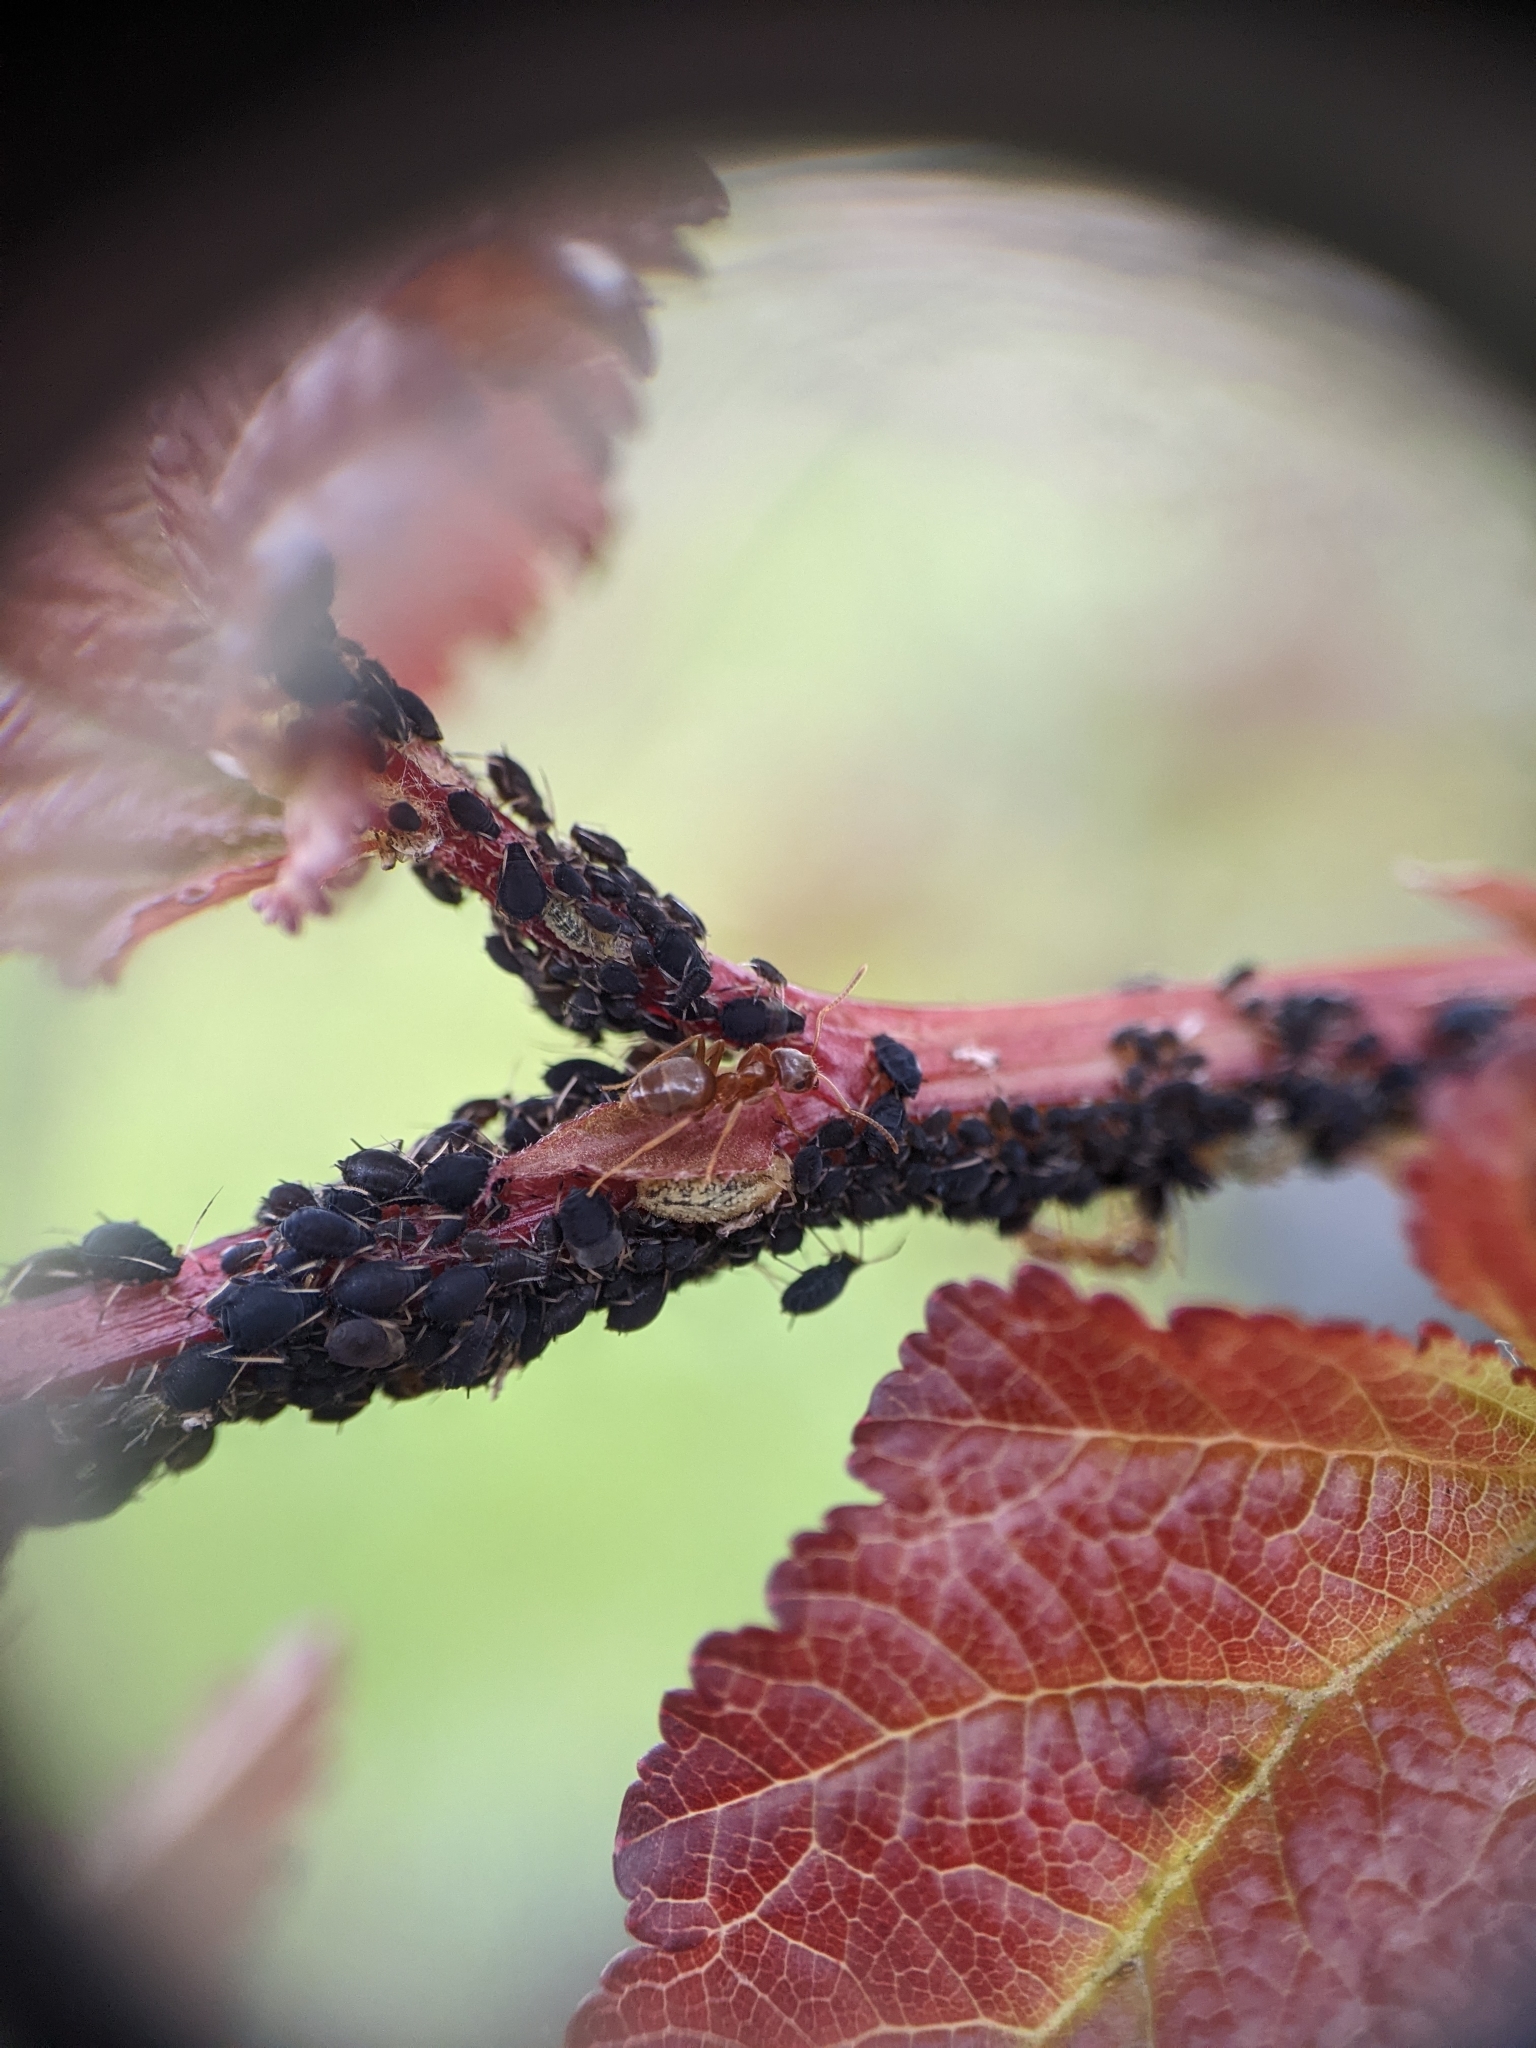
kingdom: Animalia
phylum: Arthropoda
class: Insecta
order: Hymenoptera
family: Formicidae
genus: Lasius
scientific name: Lasius neoniger
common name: Turfgrass ant
